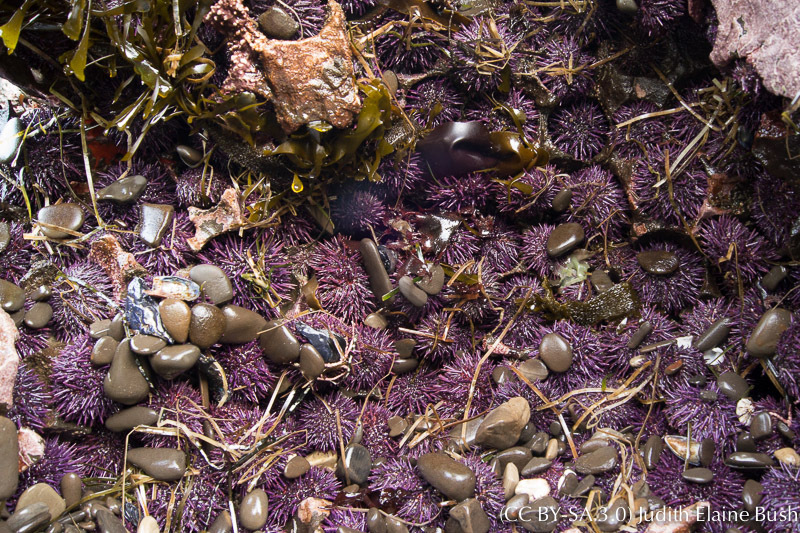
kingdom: Animalia
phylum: Echinodermata
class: Echinoidea
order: Camarodonta
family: Strongylocentrotidae
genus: Strongylocentrotus
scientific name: Strongylocentrotus purpuratus
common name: Purple sea urchin
